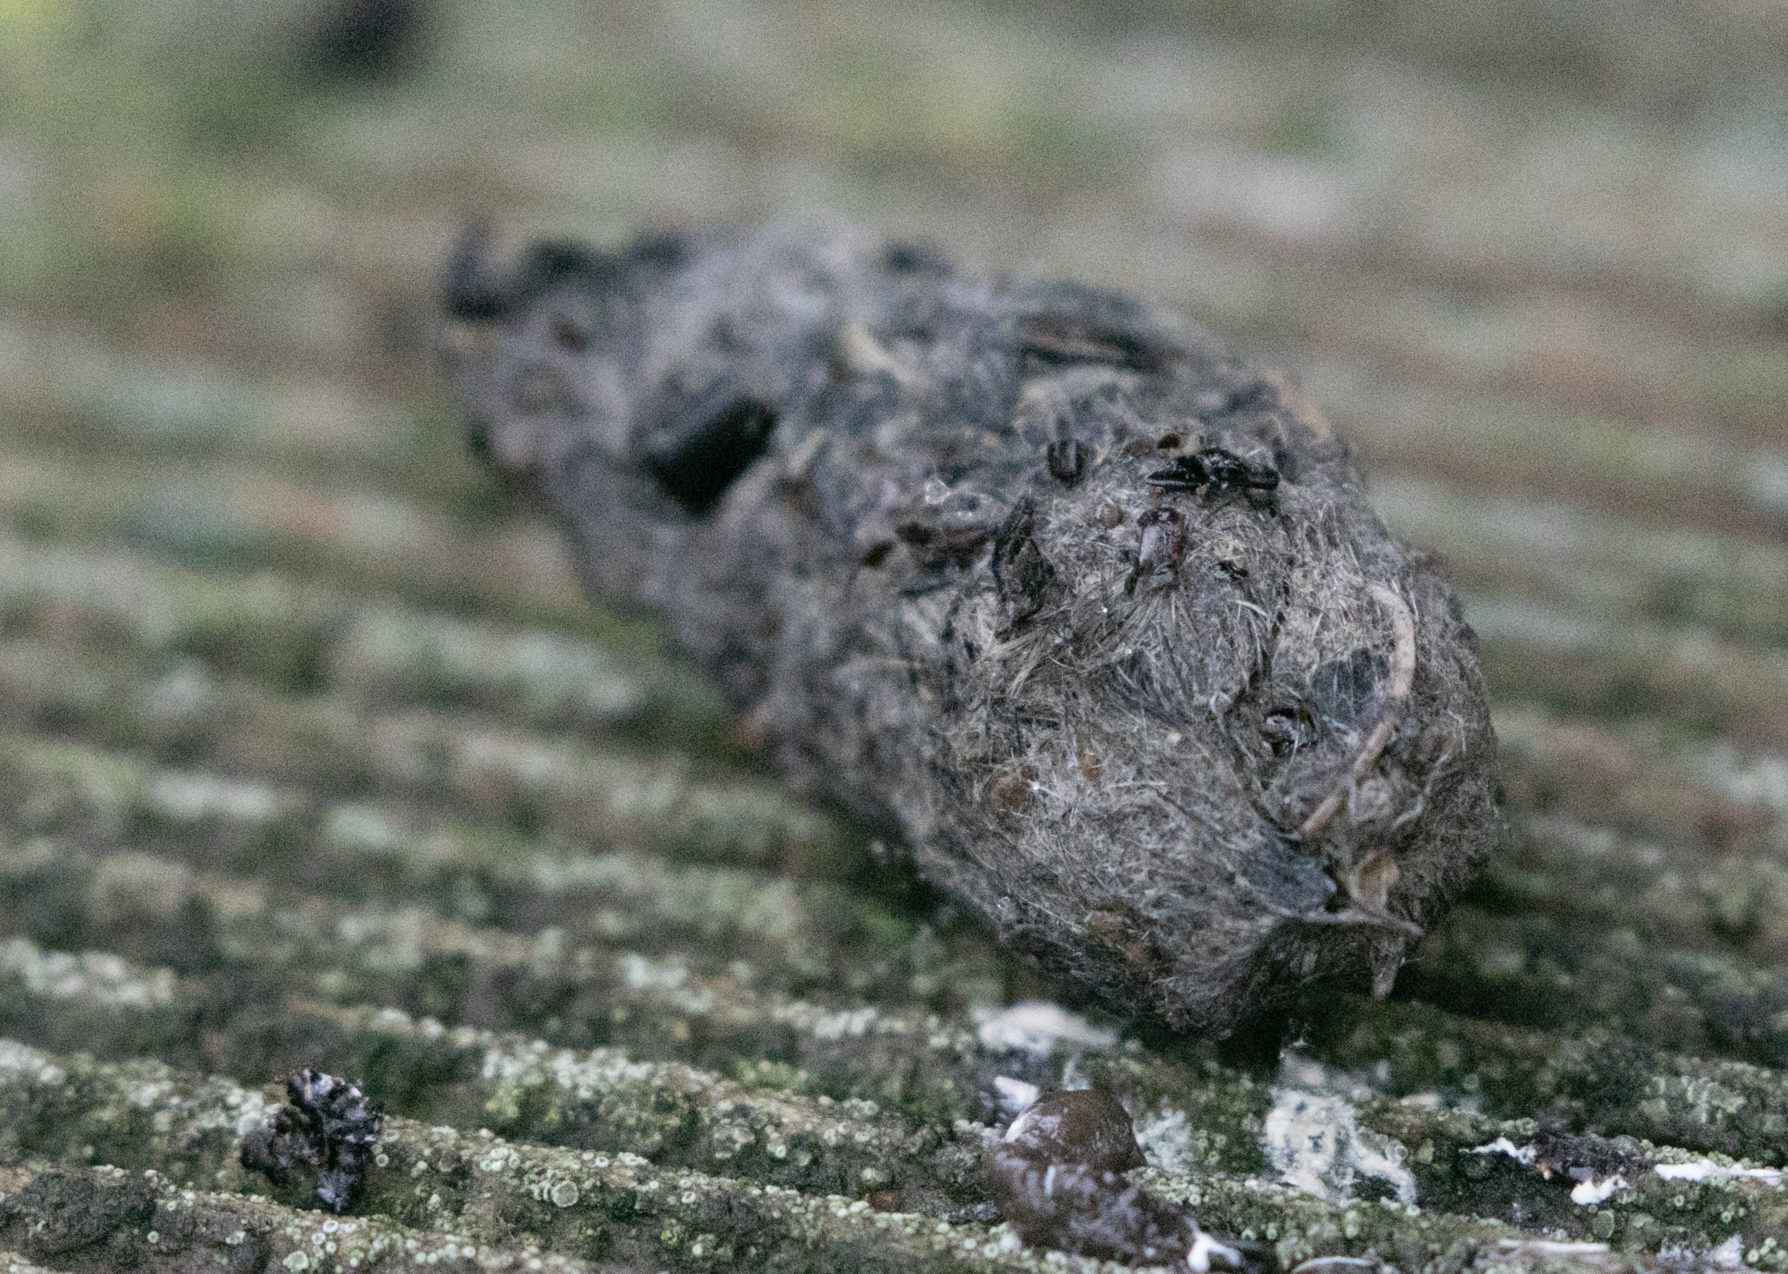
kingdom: Animalia
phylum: Chordata
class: Aves
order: Strigiformes
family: Strigidae
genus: Athene
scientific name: Athene noctua
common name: Little owl
